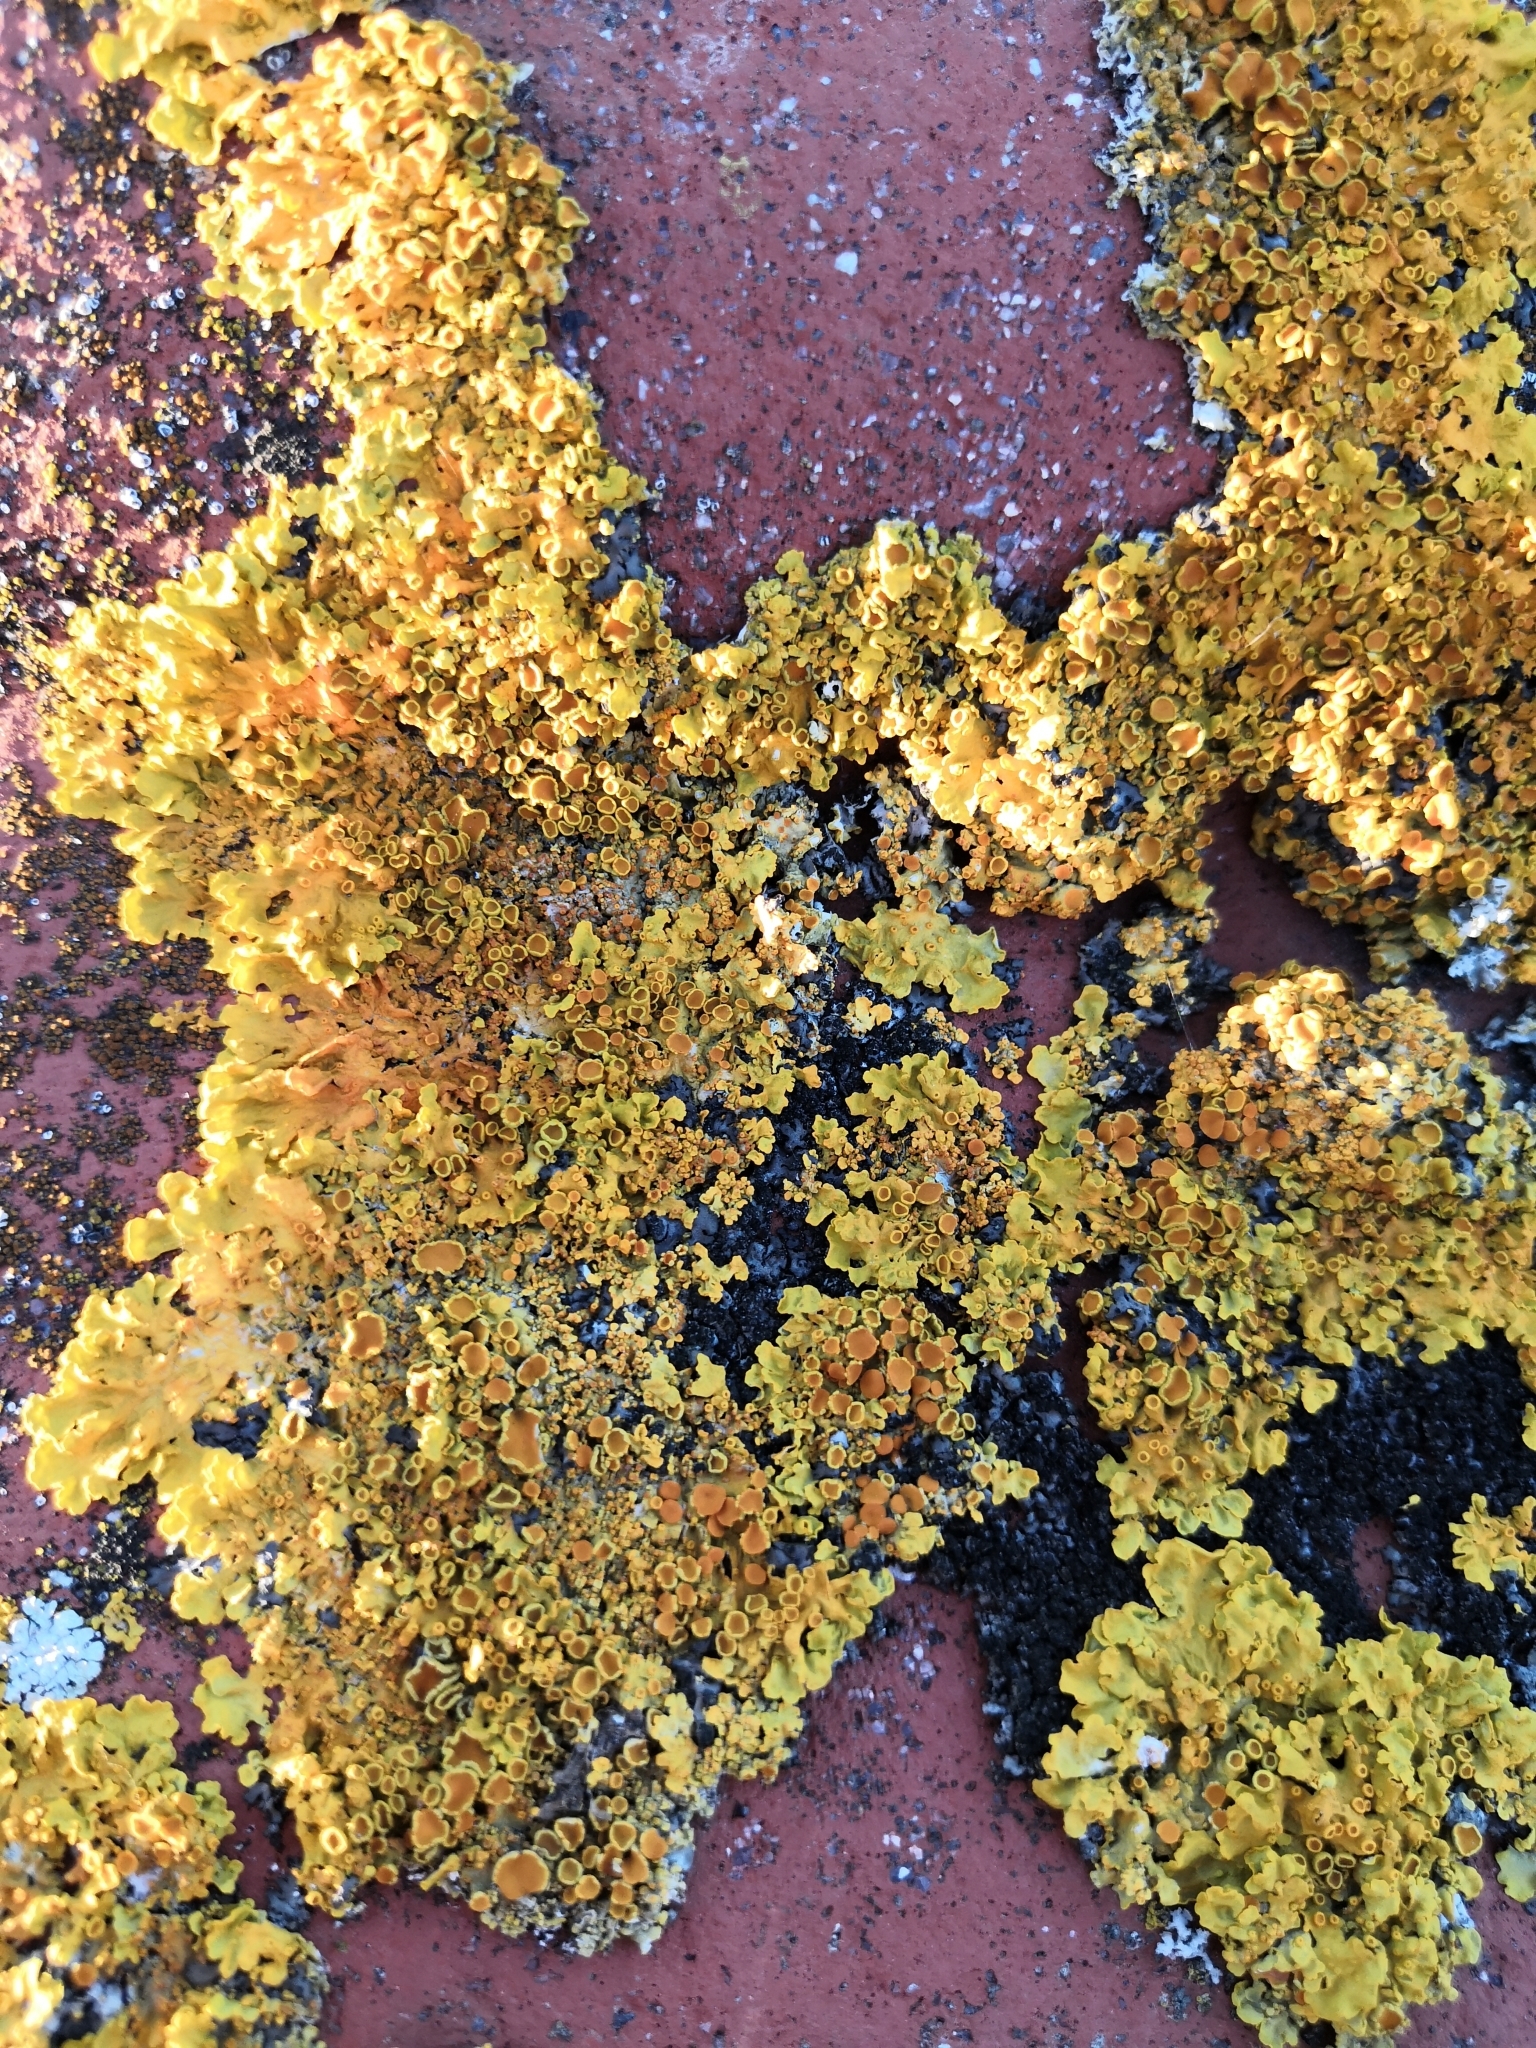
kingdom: Fungi
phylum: Ascomycota
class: Lecanoromycetes
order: Teloschistales
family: Teloschistaceae
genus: Xanthoria
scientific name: Xanthoria parietina
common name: Common orange lichen
